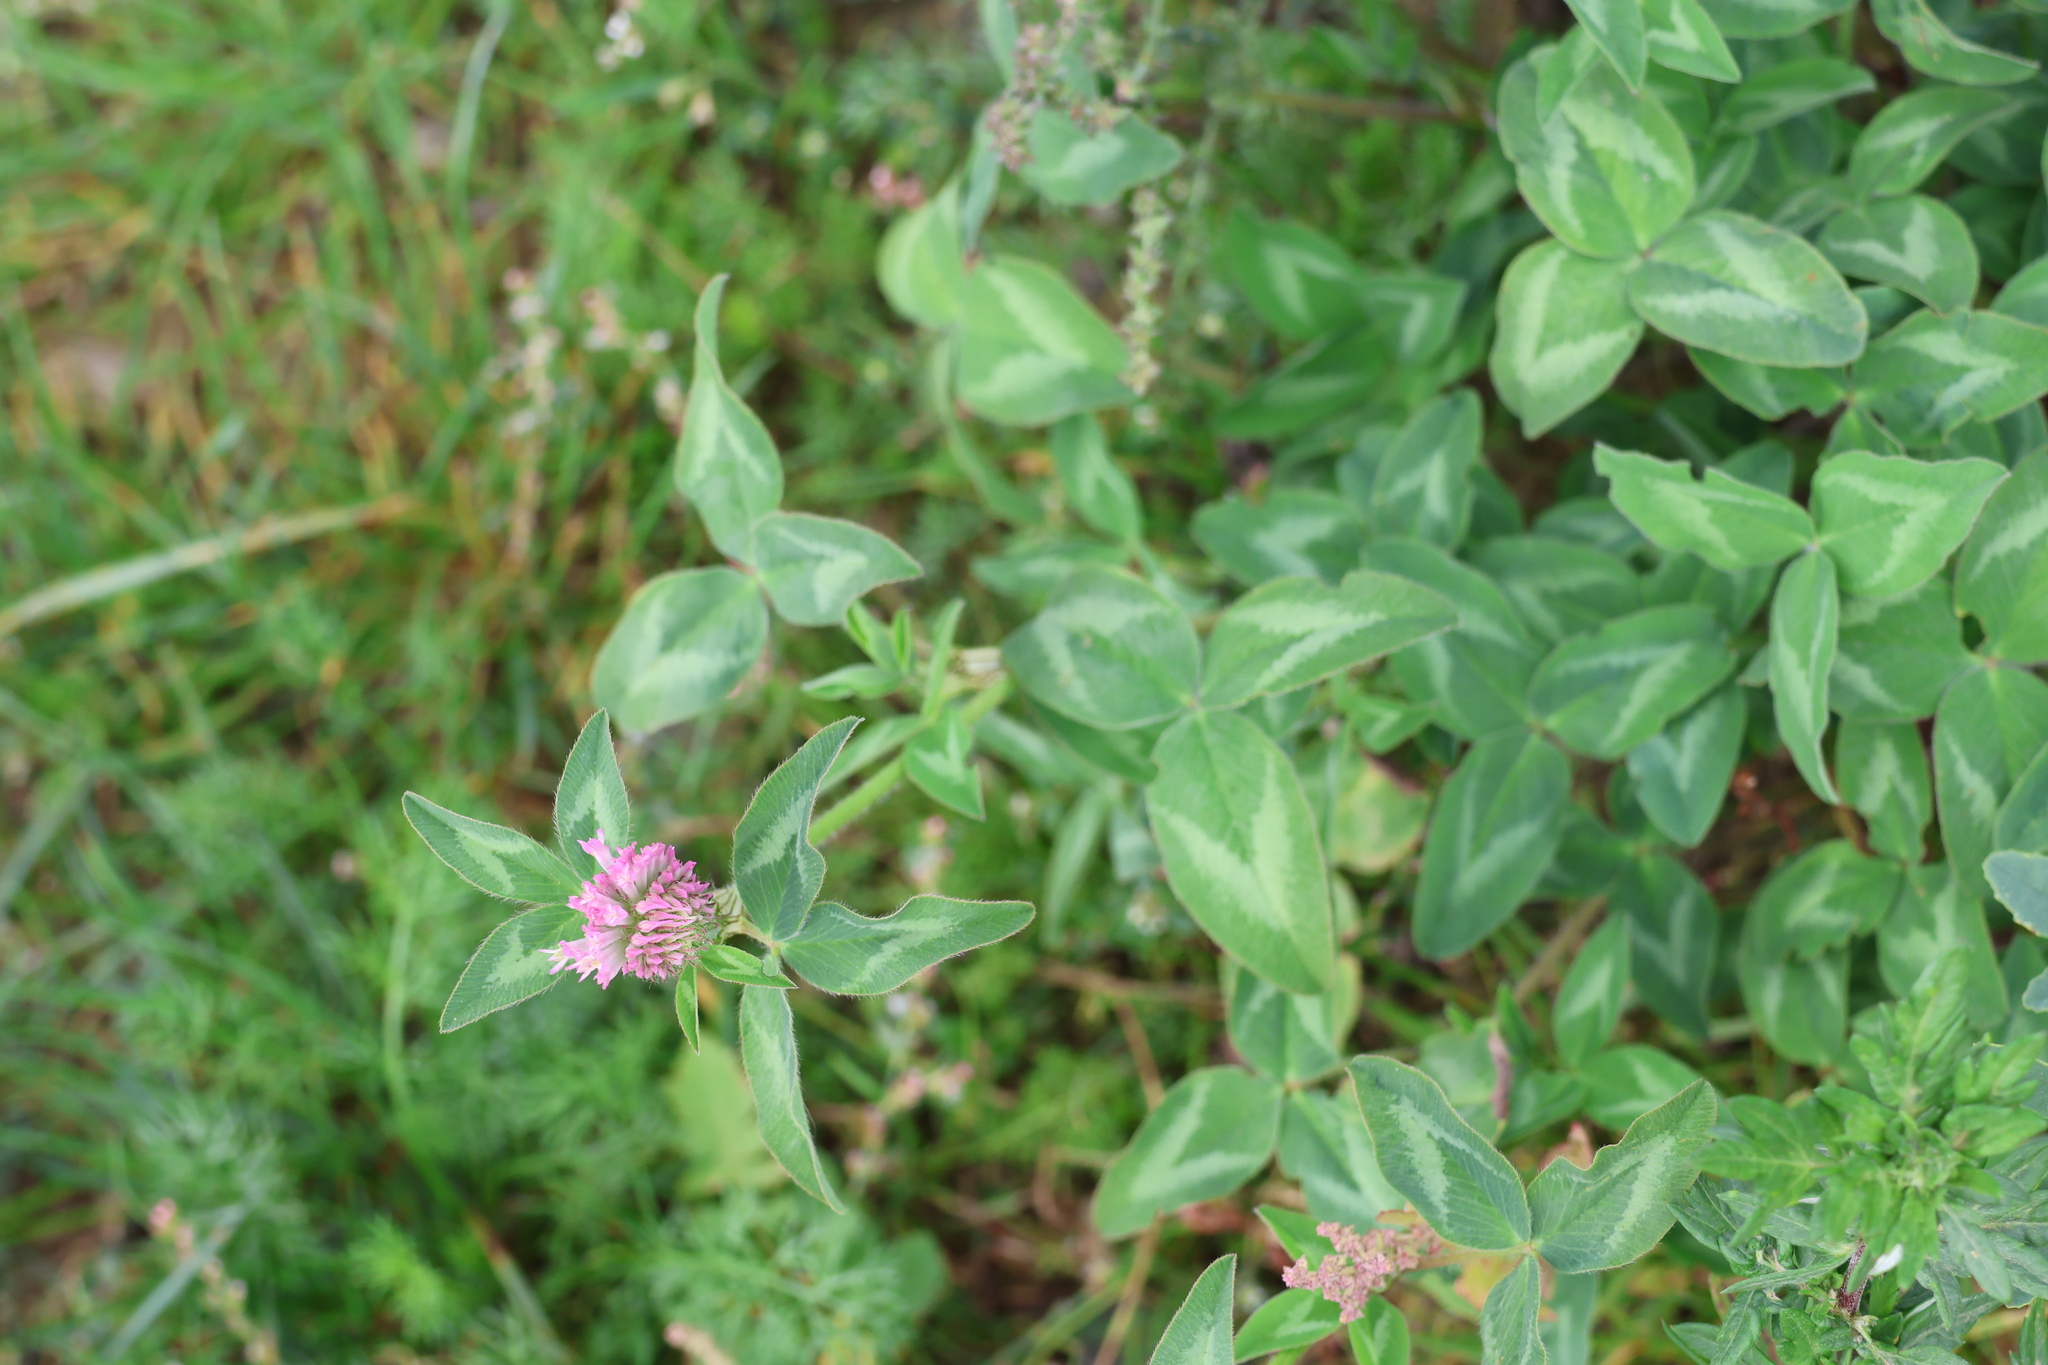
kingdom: Plantae
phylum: Tracheophyta
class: Magnoliopsida
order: Fabales
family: Fabaceae
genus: Trifolium
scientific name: Trifolium pratense
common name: Red clover
